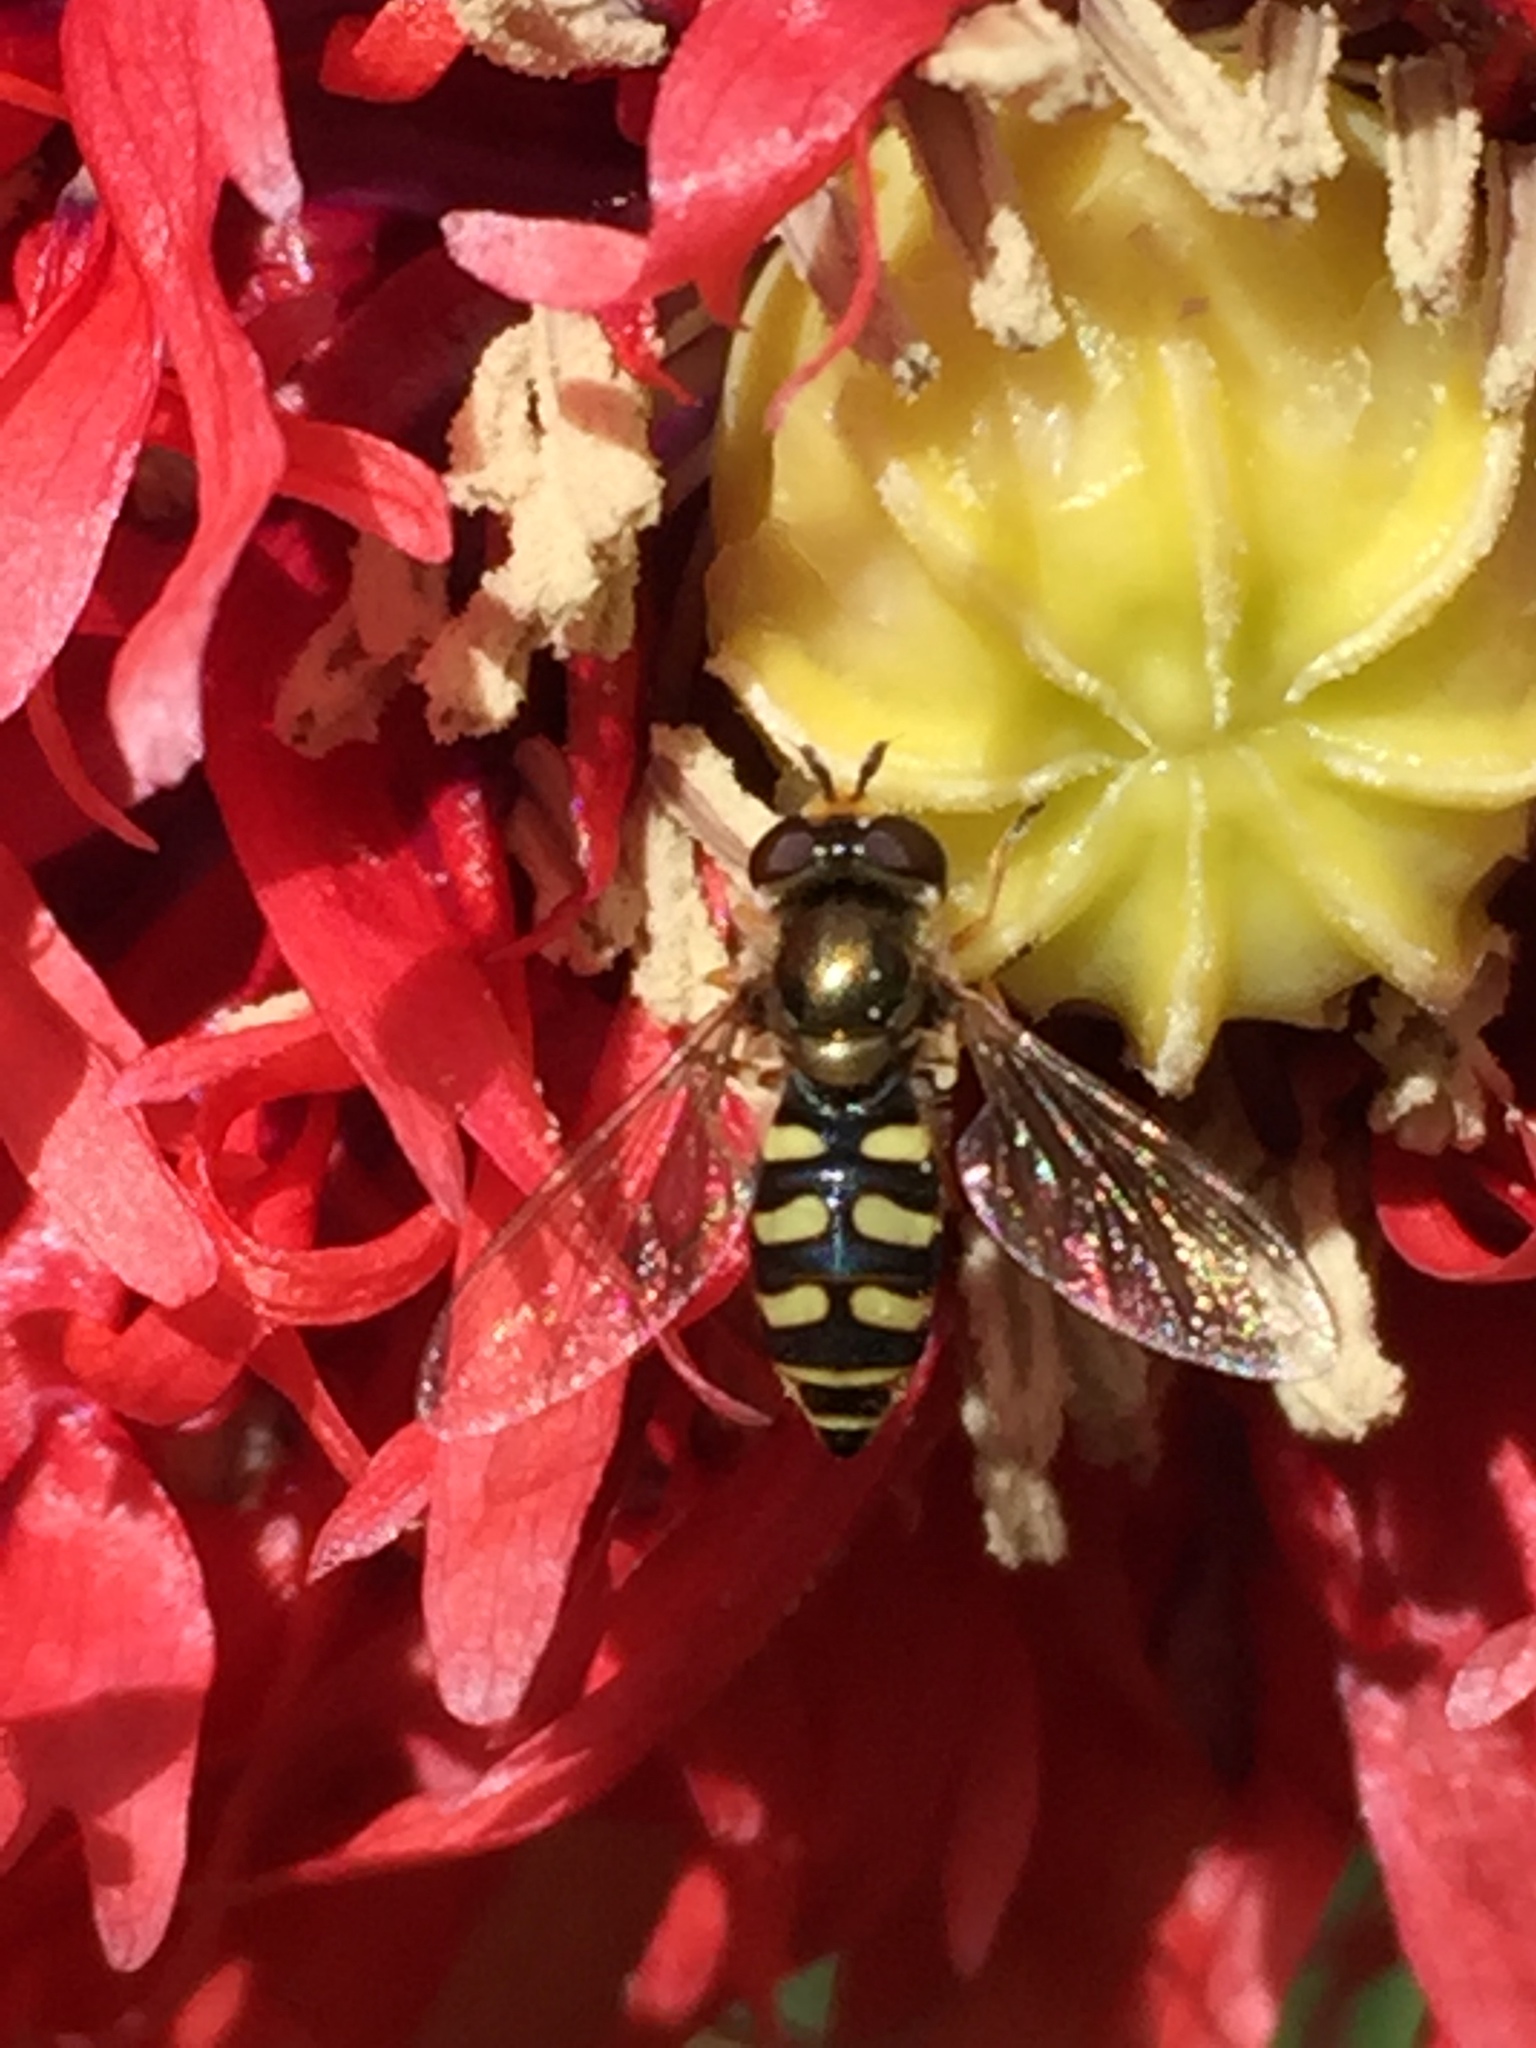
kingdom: Animalia
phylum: Arthropoda
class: Insecta
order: Diptera
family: Syrphidae
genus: Eupeodes
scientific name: Eupeodes corollae
